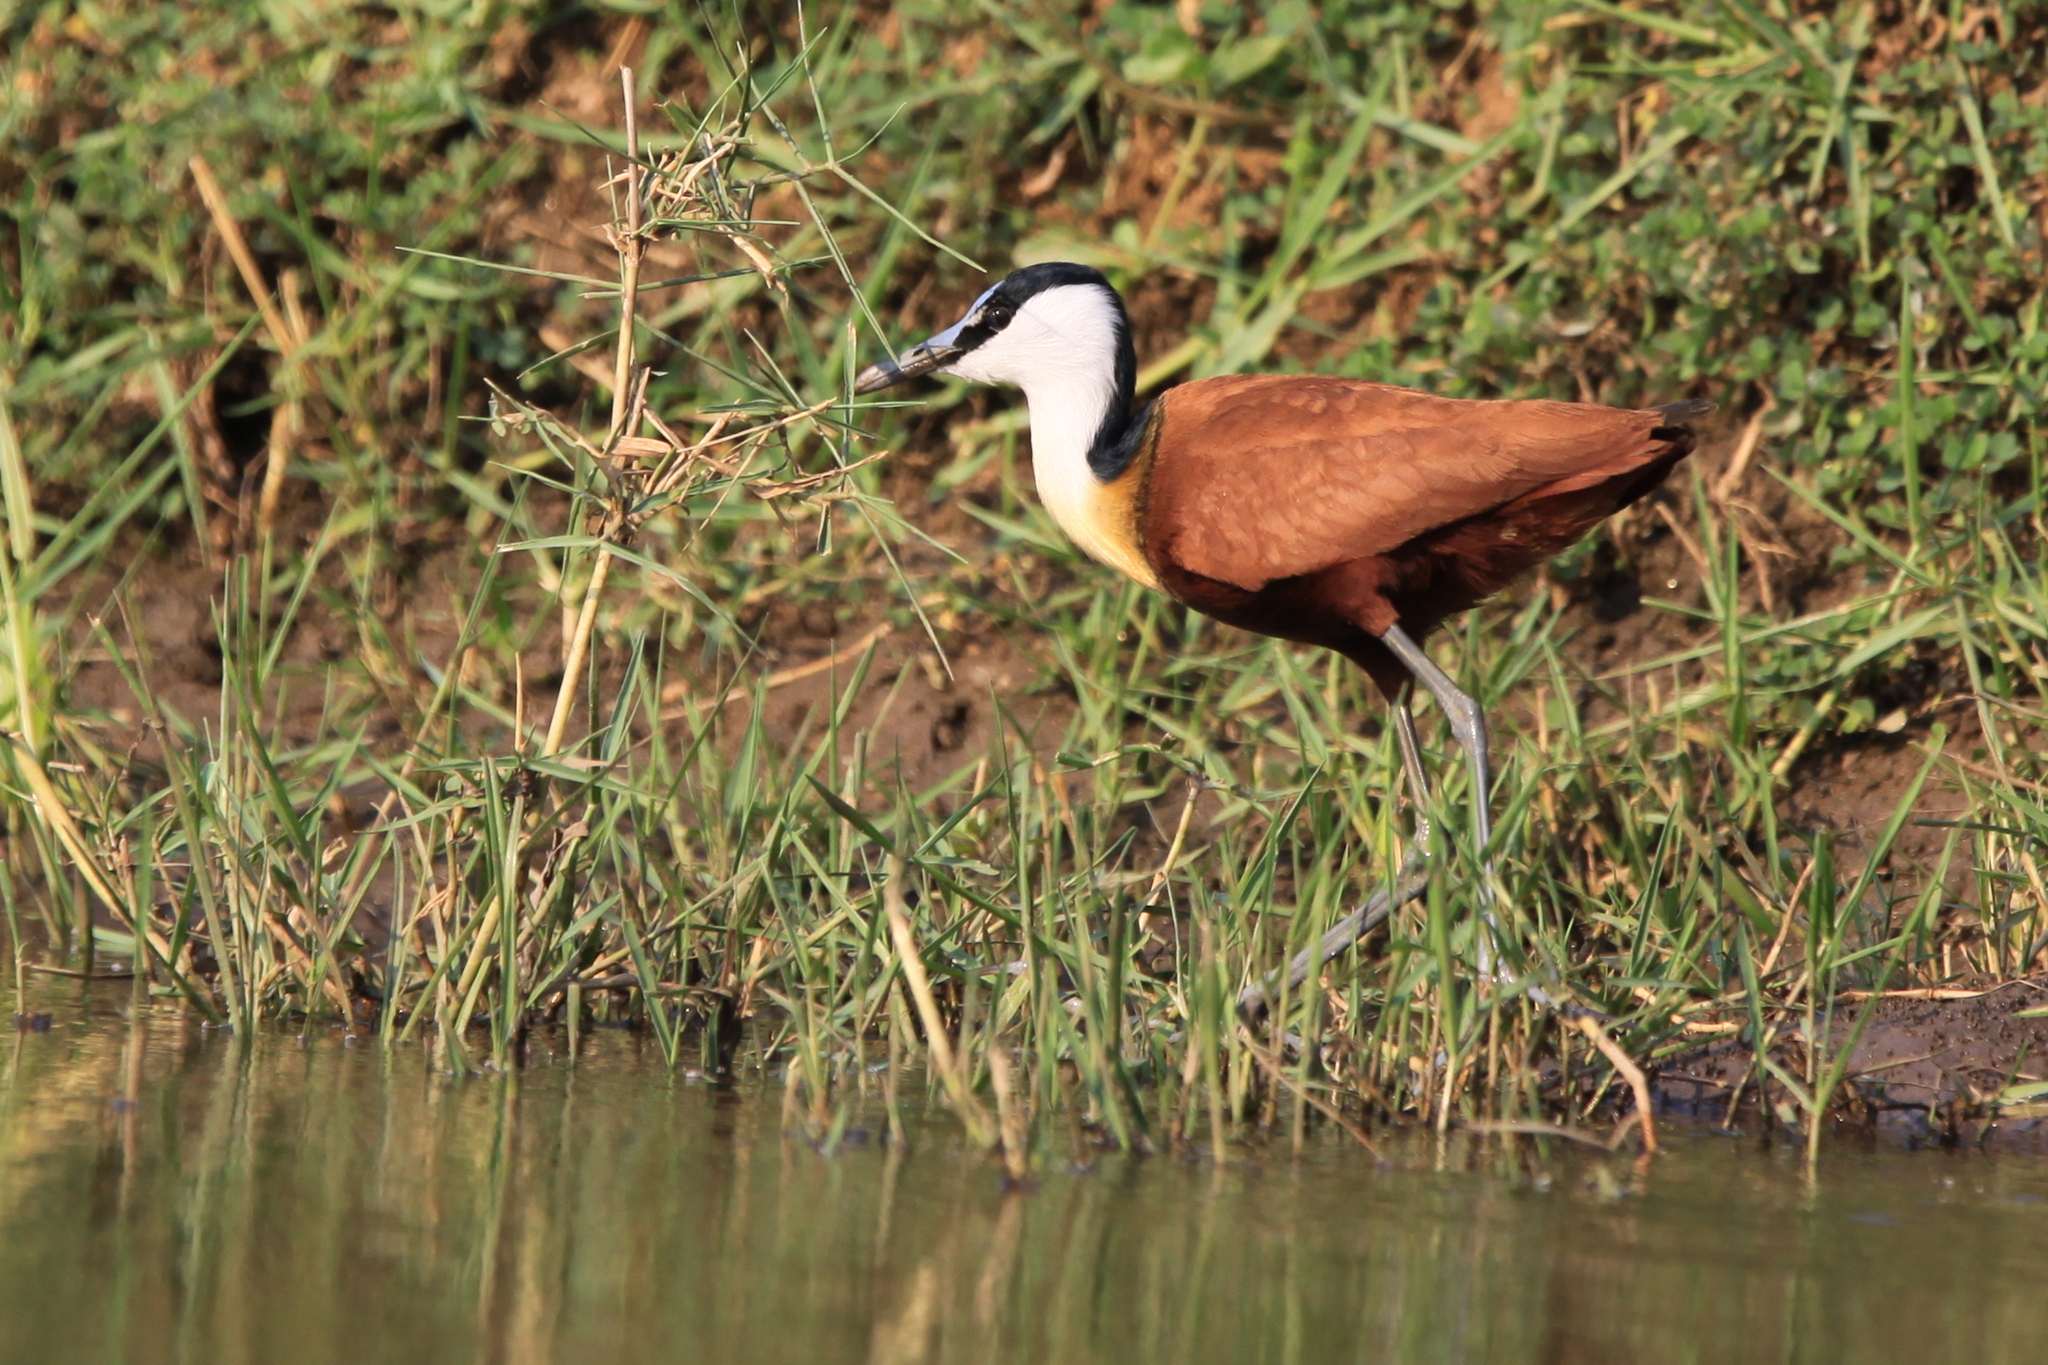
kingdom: Animalia
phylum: Chordata
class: Aves
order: Charadriiformes
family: Jacanidae
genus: Actophilornis
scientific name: Actophilornis africanus
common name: African jacana
